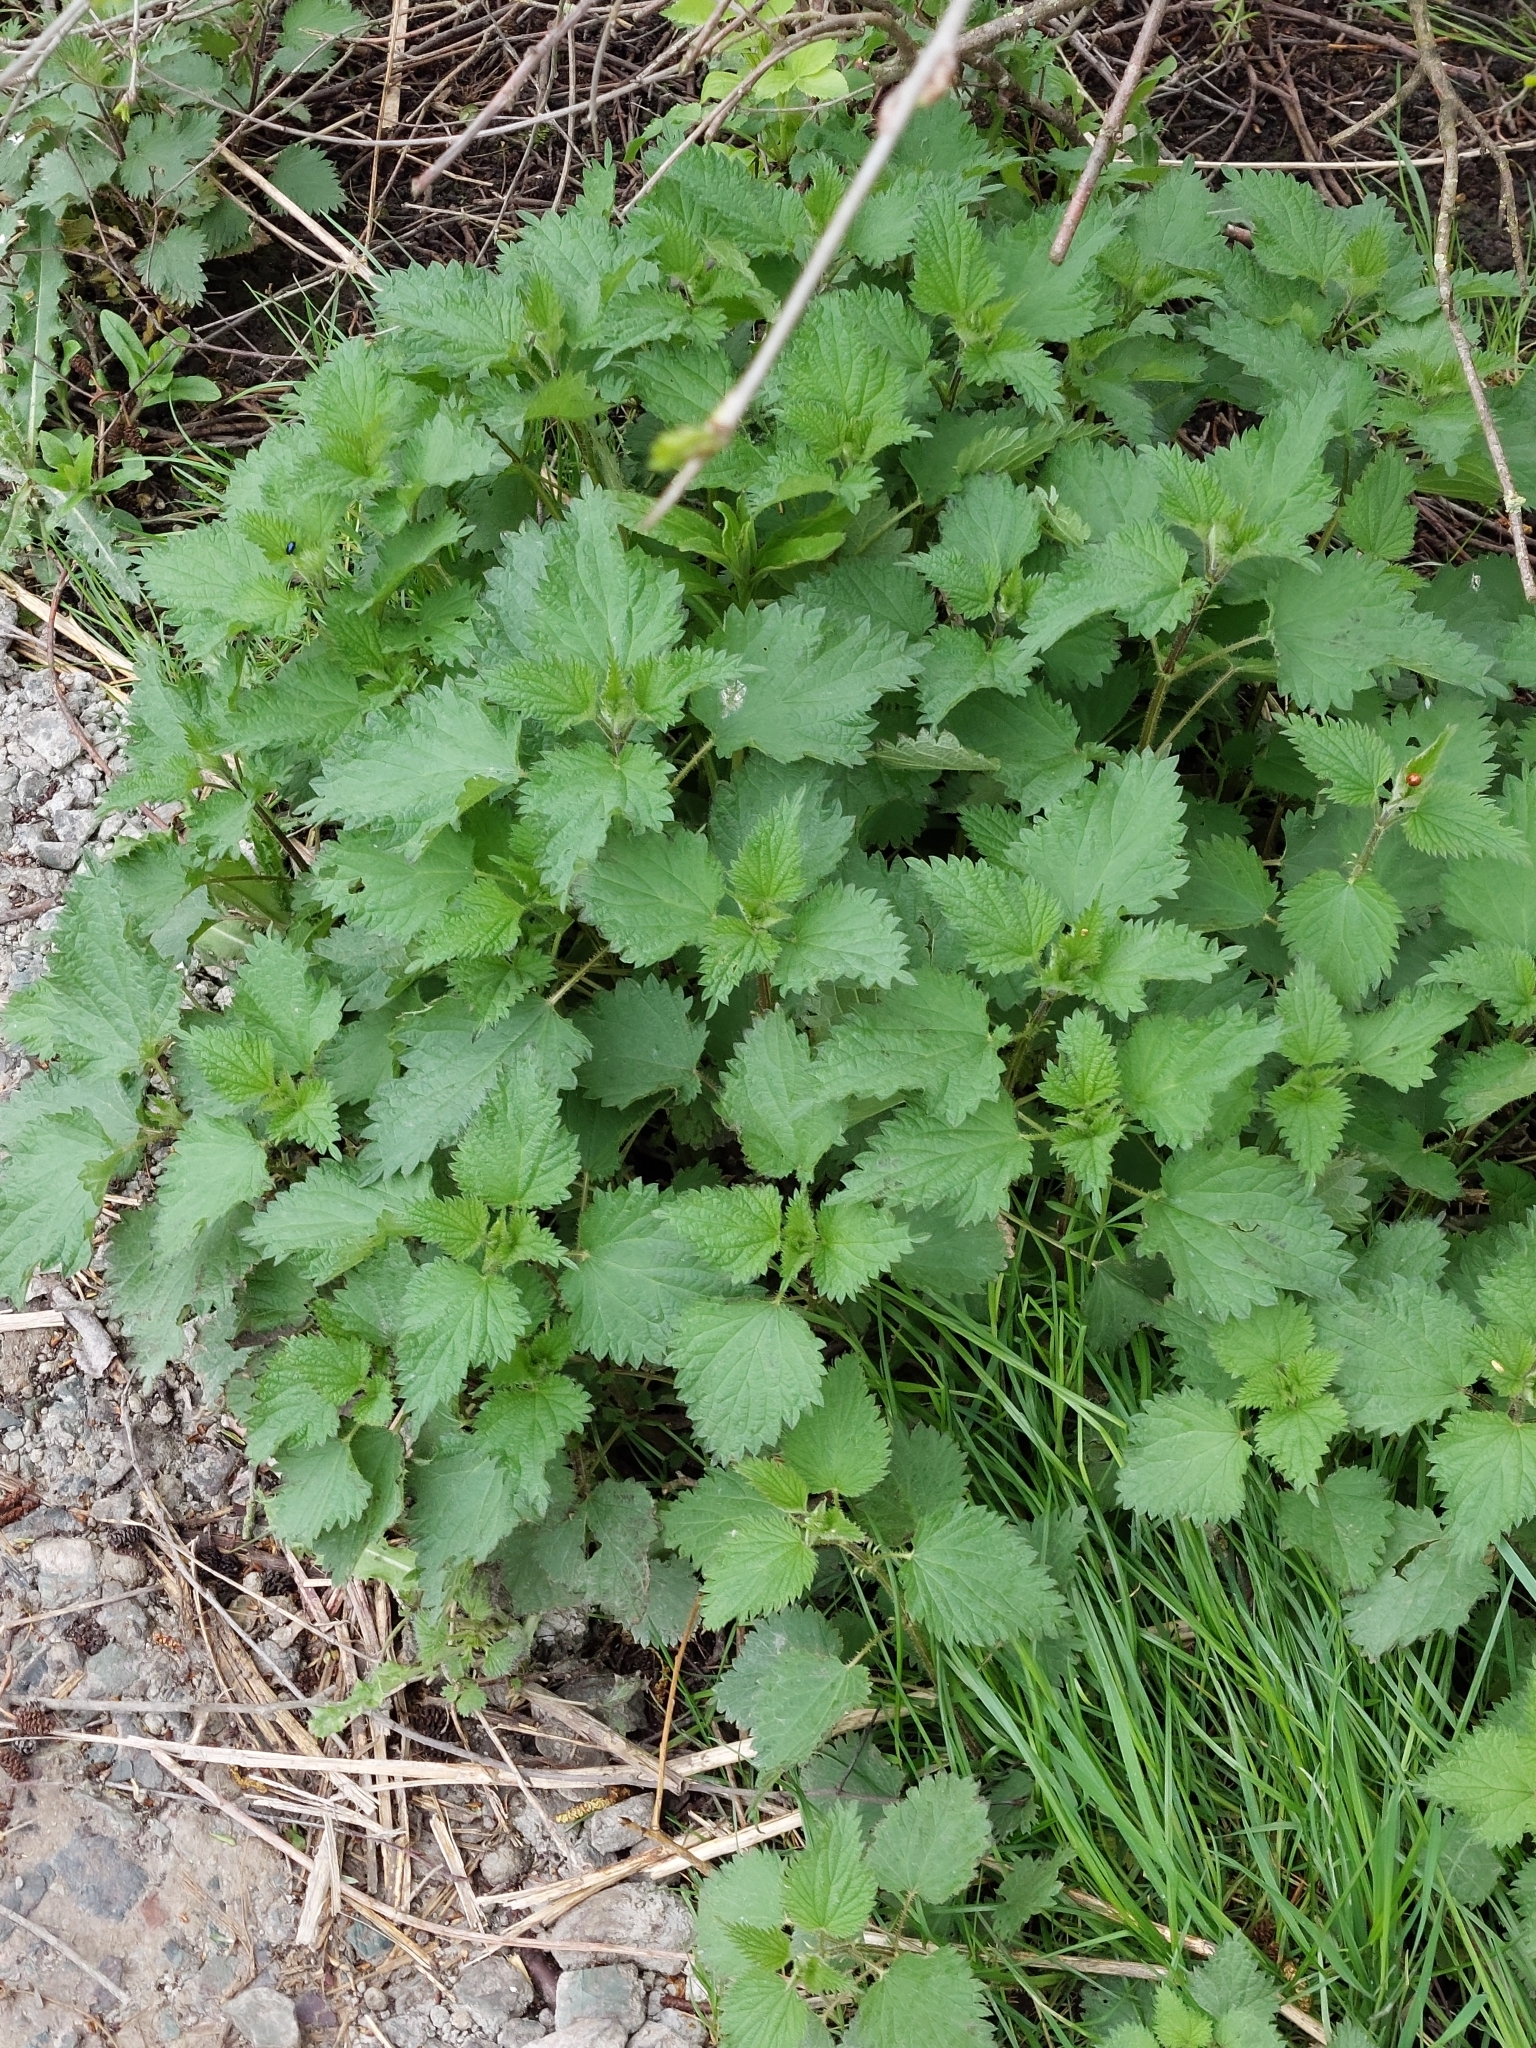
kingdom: Plantae
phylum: Tracheophyta
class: Magnoliopsida
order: Rosales
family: Urticaceae
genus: Urtica
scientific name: Urtica dioica
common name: Common nettle
